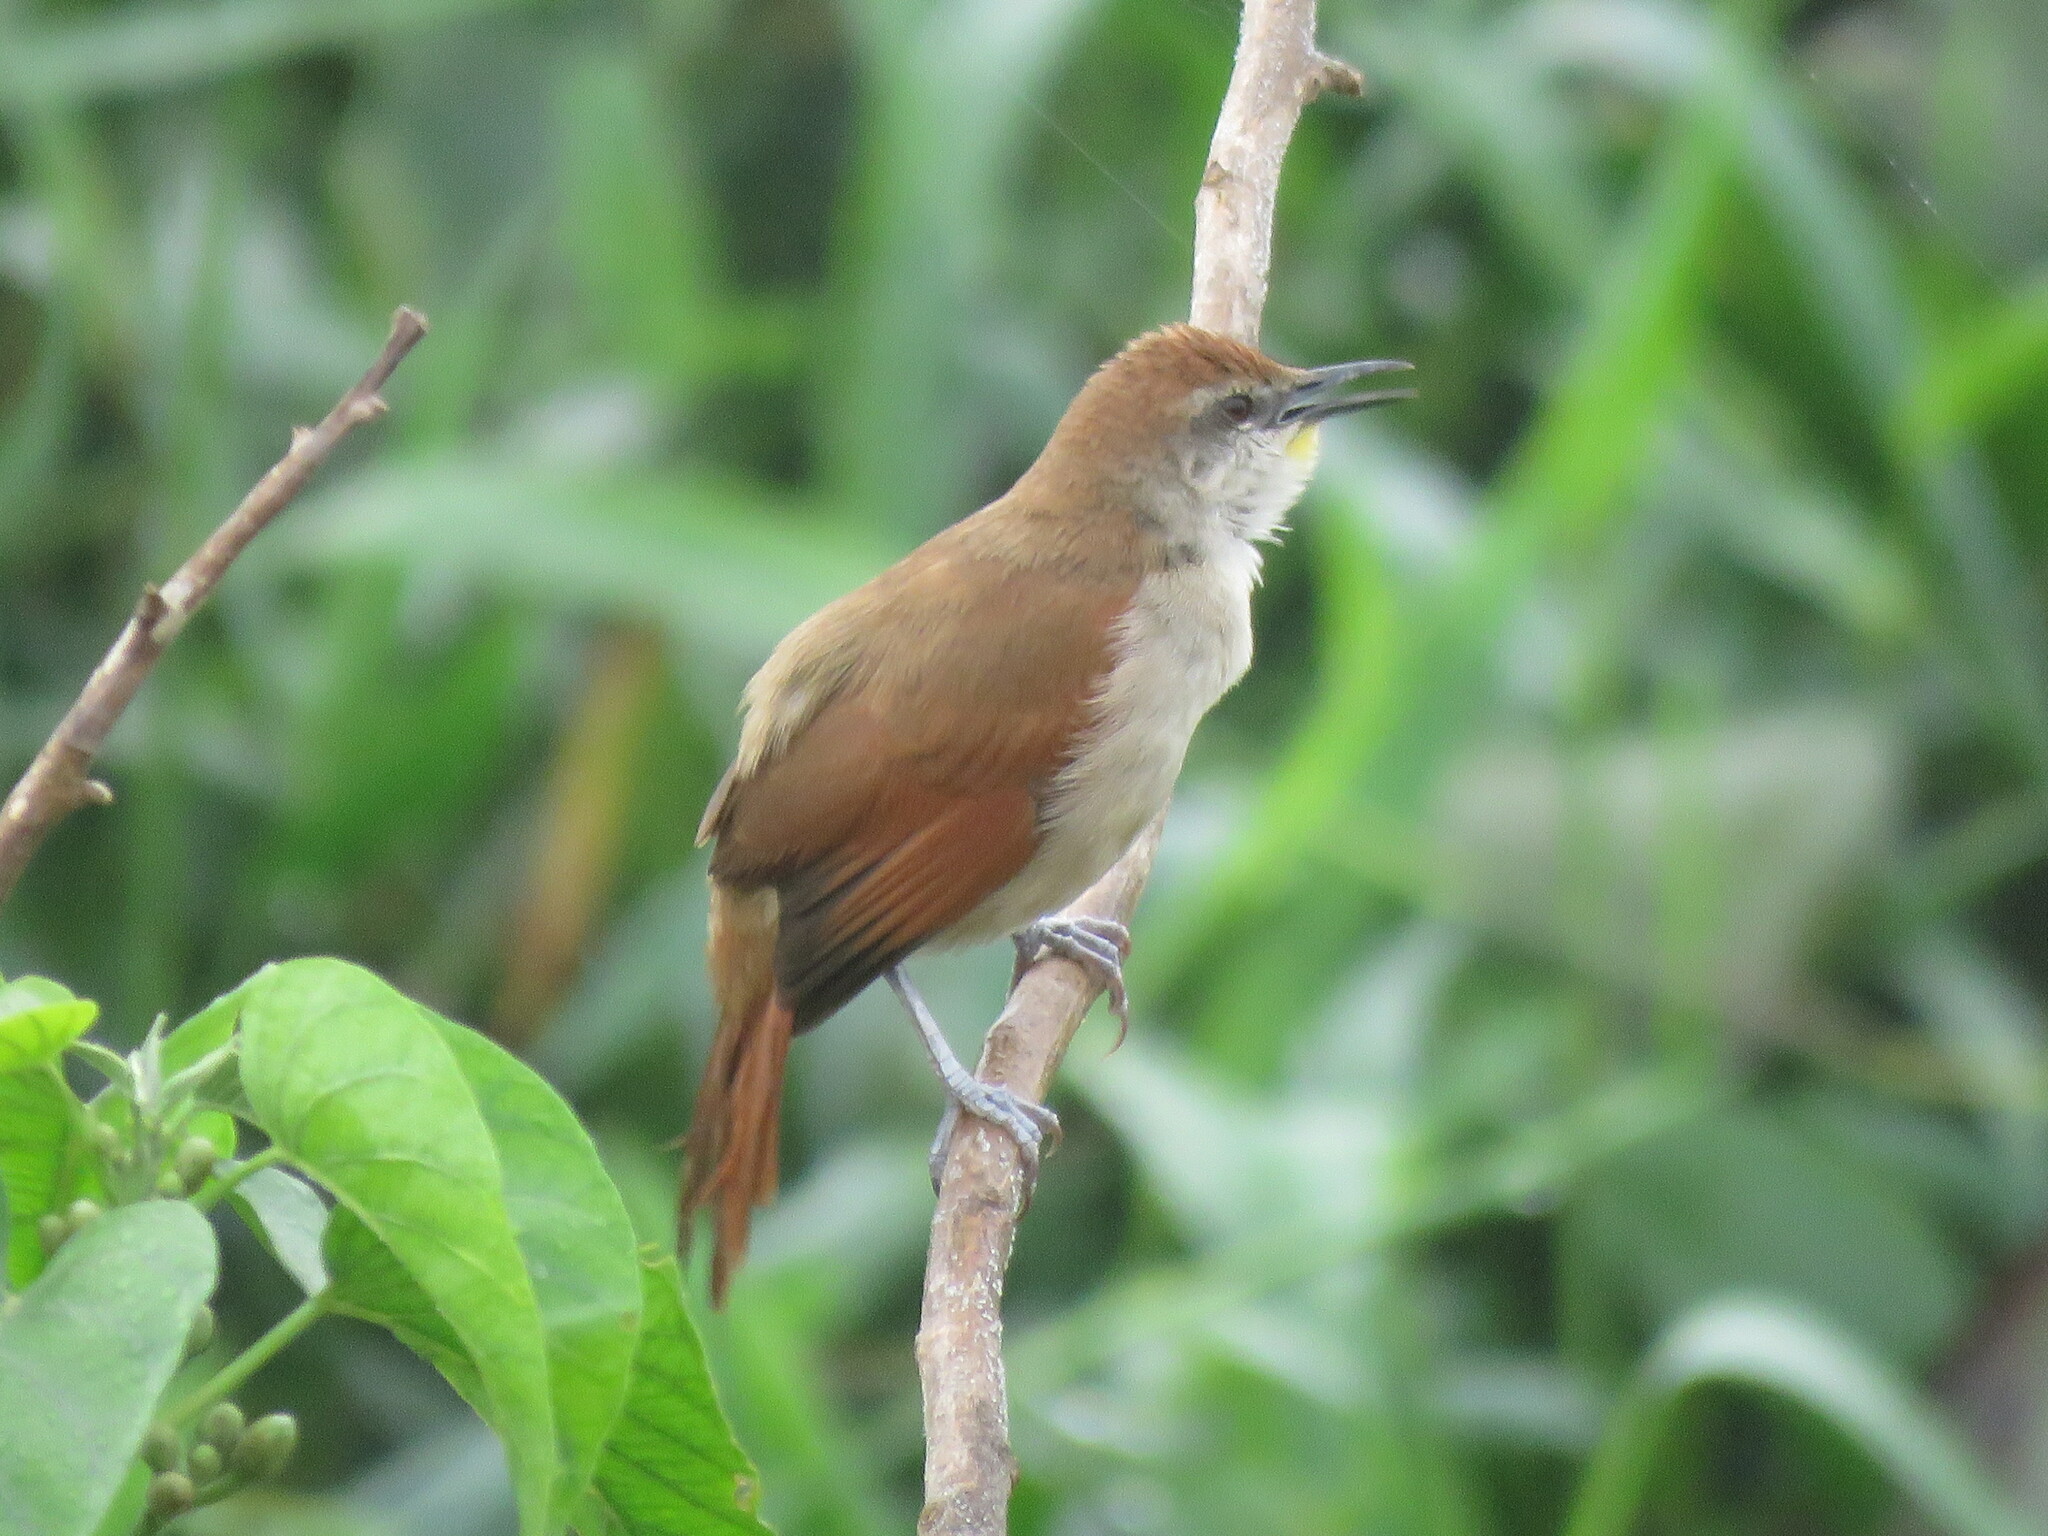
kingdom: Animalia
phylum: Chordata
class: Aves
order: Passeriformes
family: Furnariidae
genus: Certhiaxis
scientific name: Certhiaxis cinnamomeus
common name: Yellow-chinned spinetail
